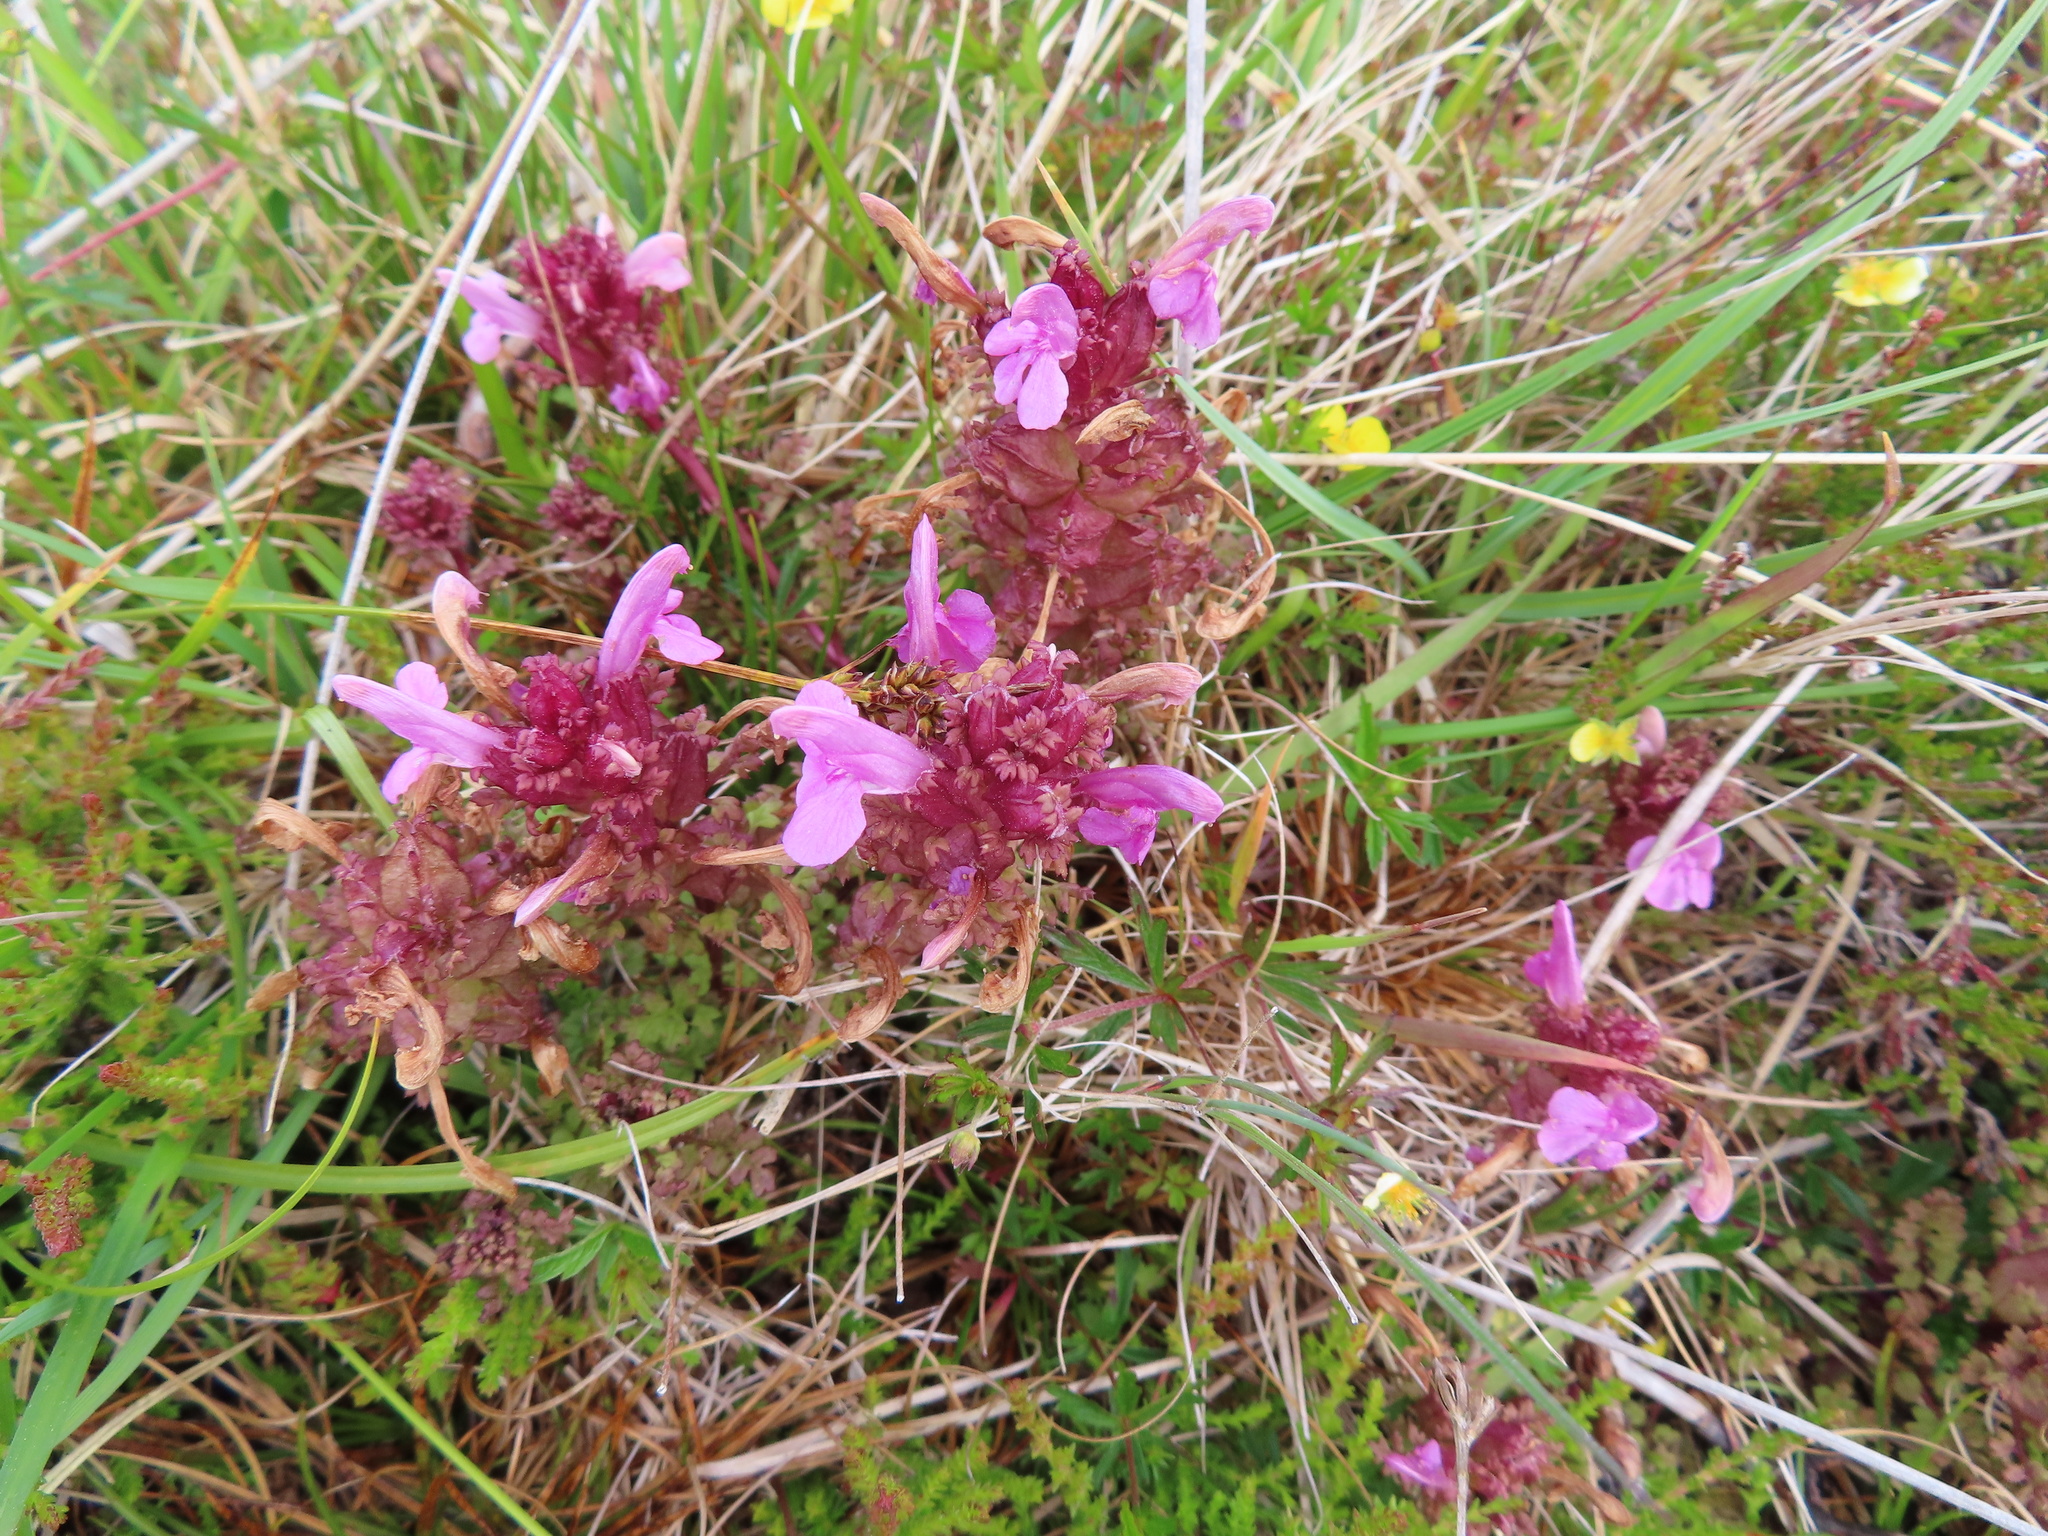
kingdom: Plantae
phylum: Tracheophyta
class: Magnoliopsida
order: Lamiales
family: Orobanchaceae
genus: Pedicularis
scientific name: Pedicularis sylvatica
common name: Lousewort
